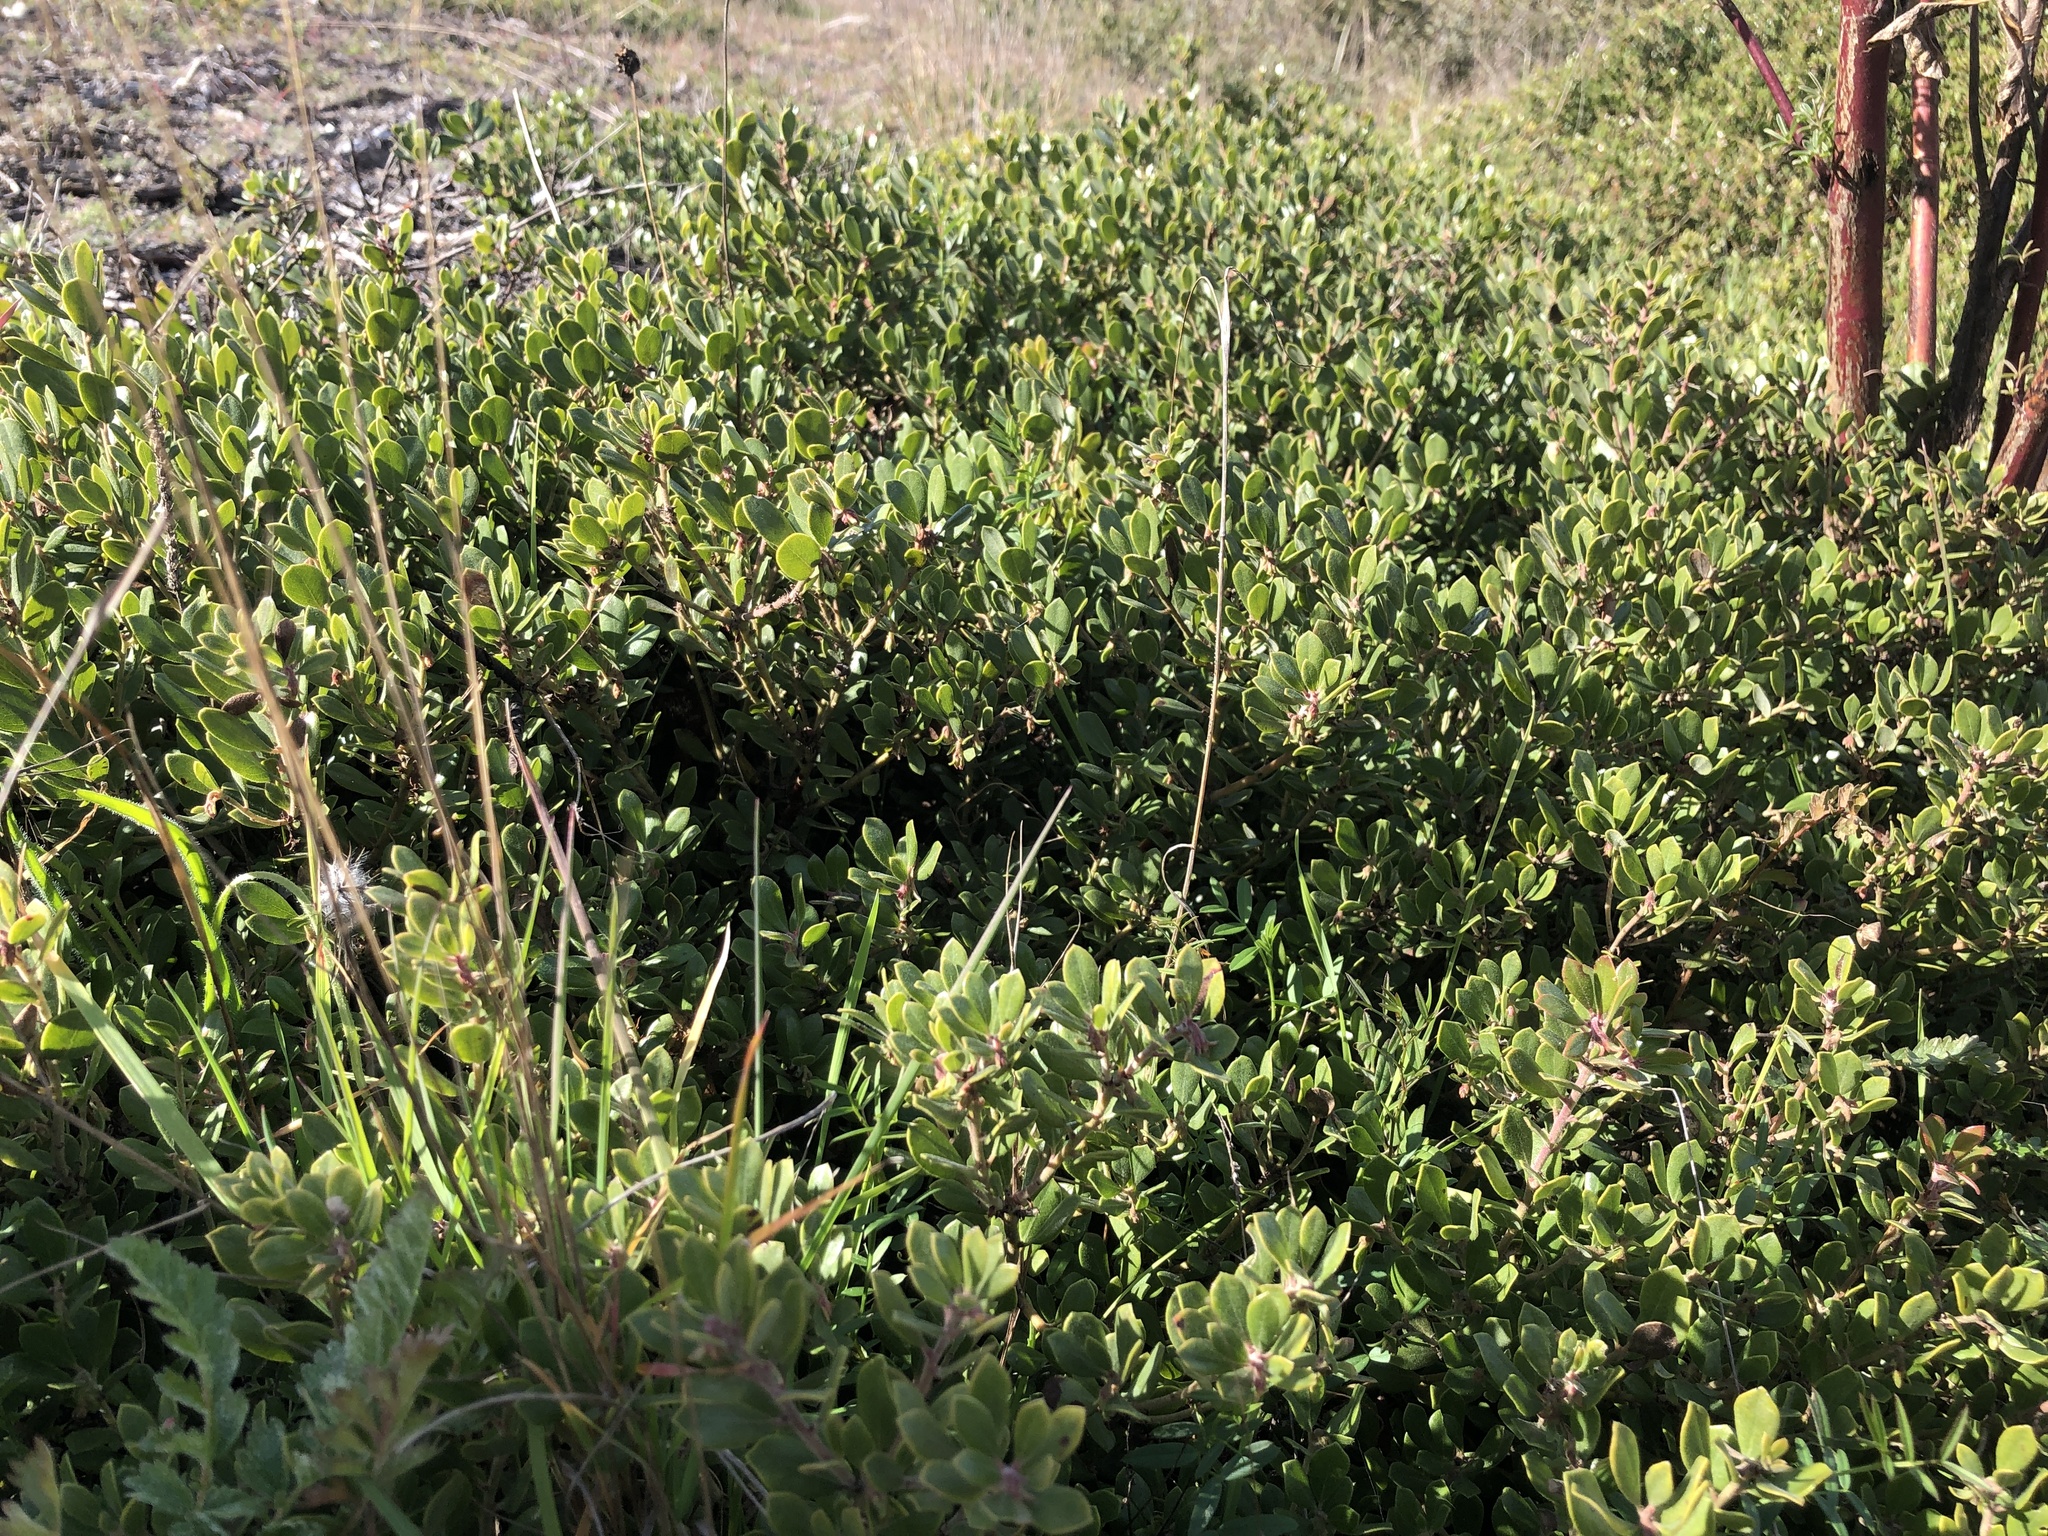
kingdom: Plantae
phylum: Tracheophyta
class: Magnoliopsida
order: Ericales
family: Ericaceae
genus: Arctostaphylos
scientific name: Arctostaphylos pumila
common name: Sandmat manzanita
